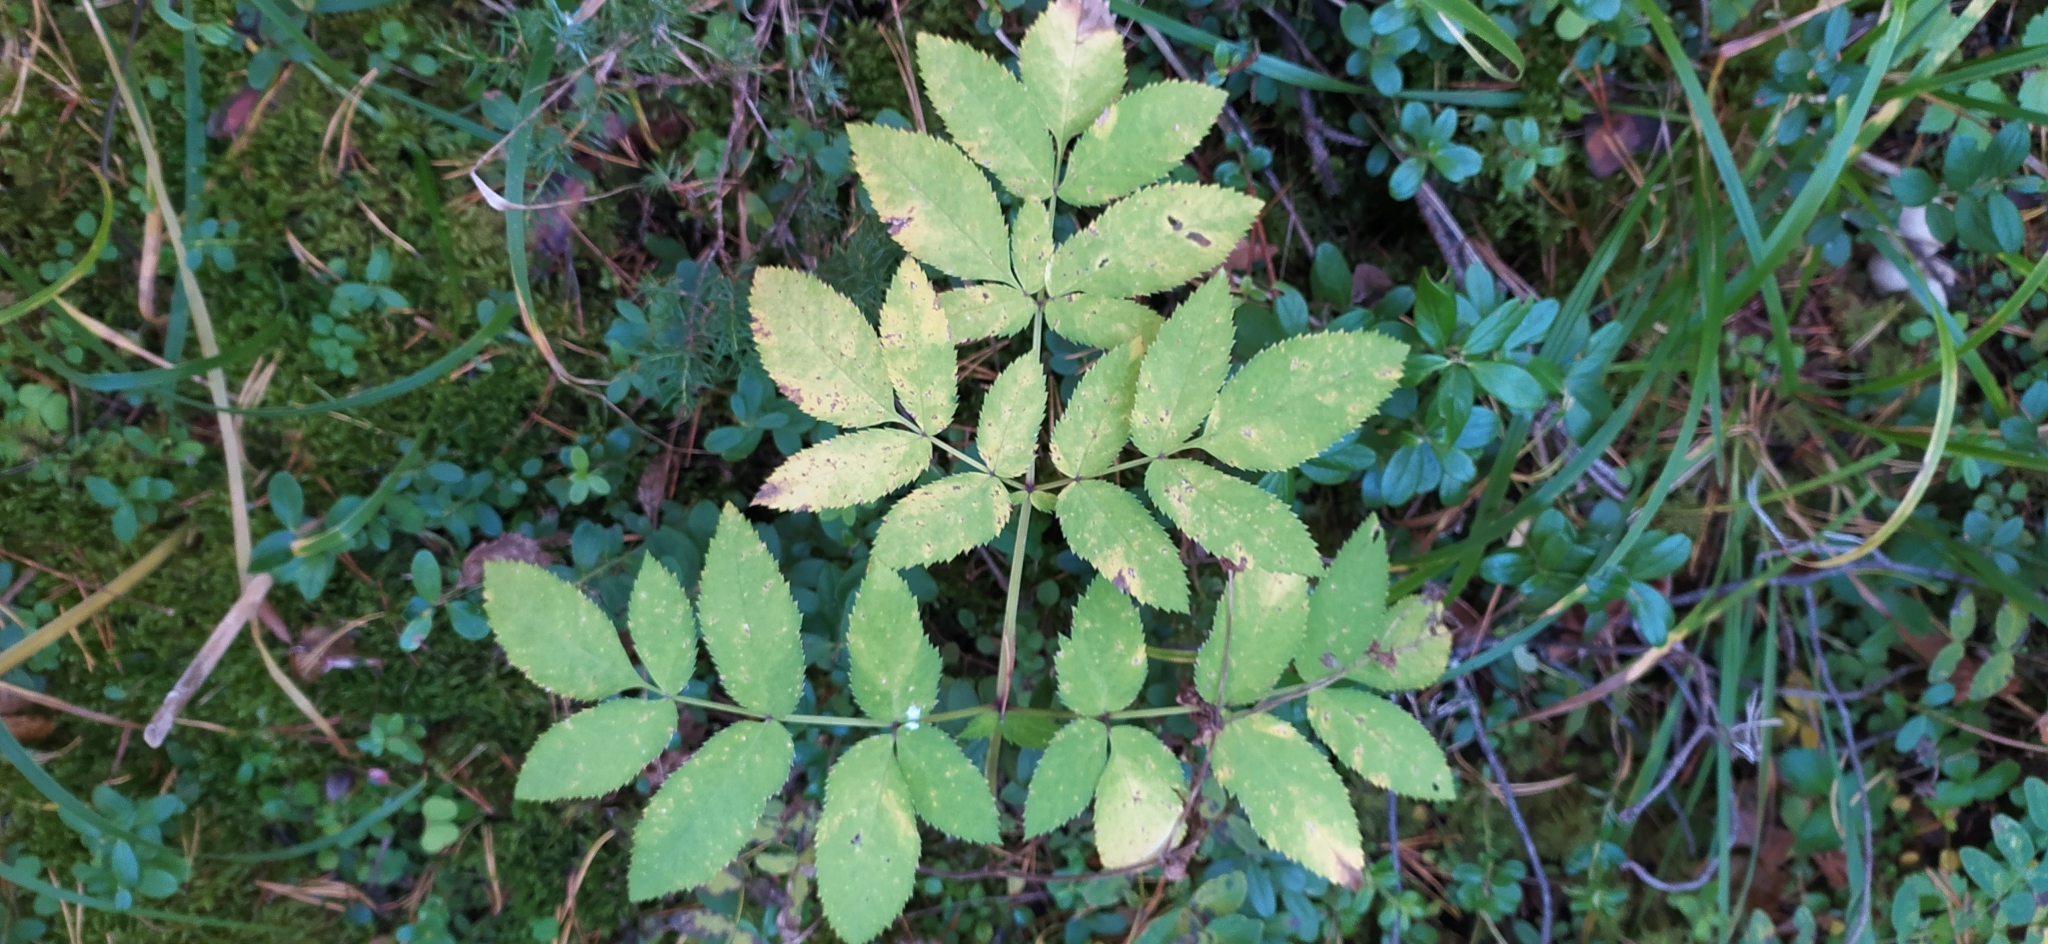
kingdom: Plantae
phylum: Tracheophyta
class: Magnoliopsida
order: Apiales
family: Apiaceae
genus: Angelica
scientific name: Angelica sylvestris
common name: Wild angelica
